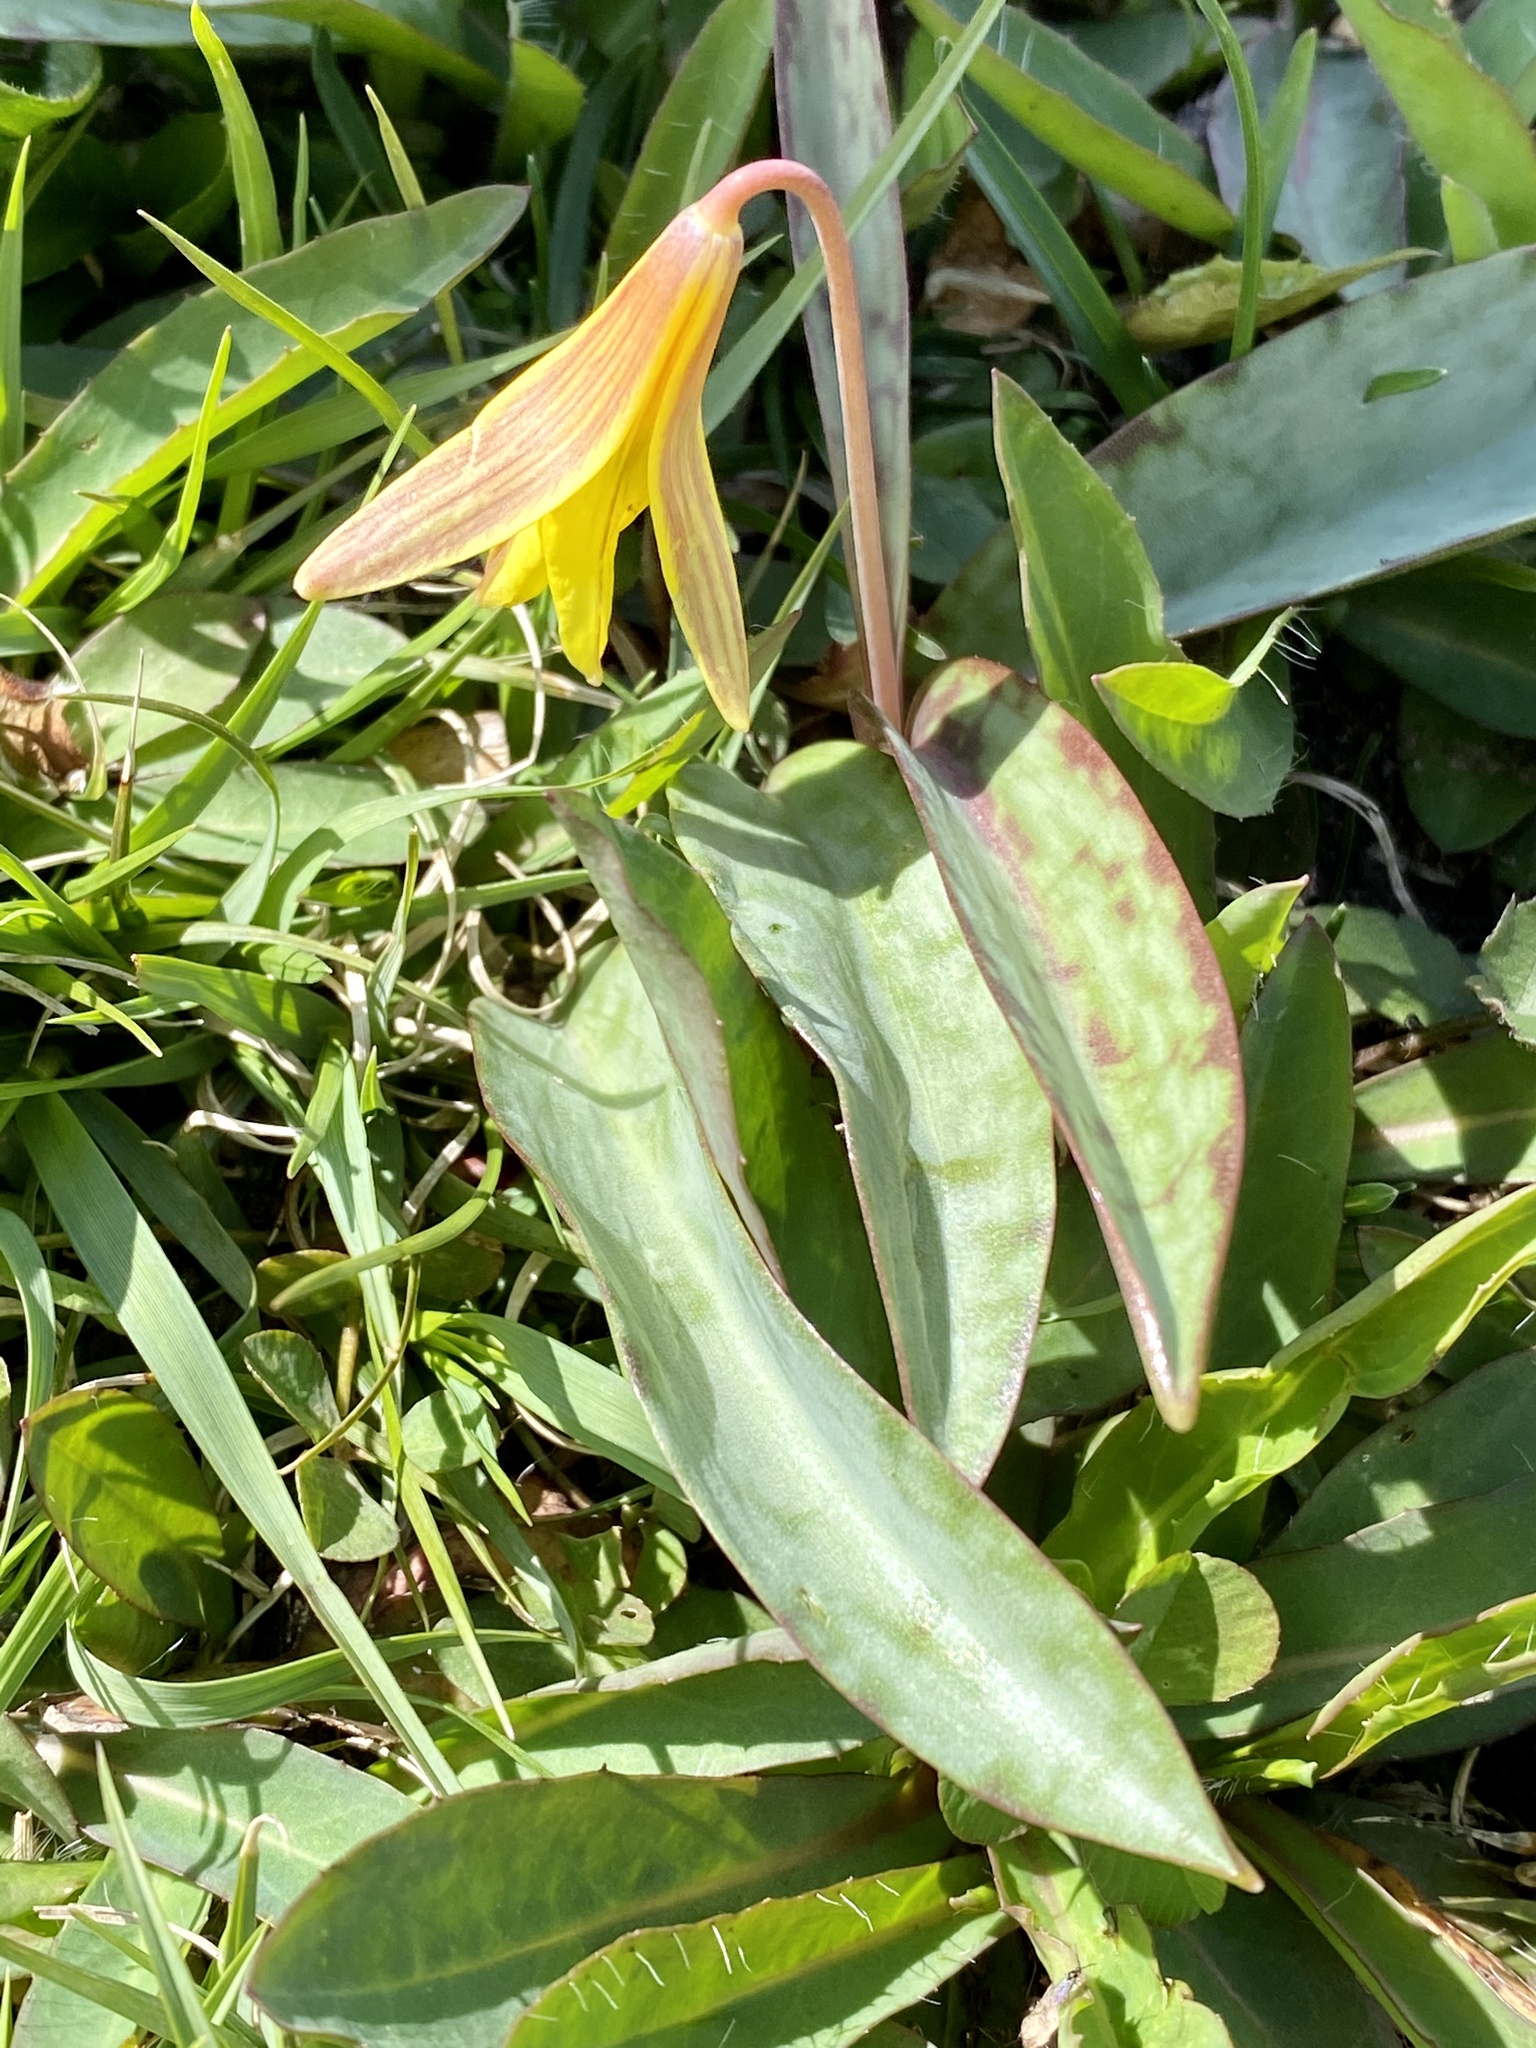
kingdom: Plantae
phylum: Tracheophyta
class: Liliopsida
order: Liliales
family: Liliaceae
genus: Erythronium
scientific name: Erythronium americanum
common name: Yellow adder's-tongue
